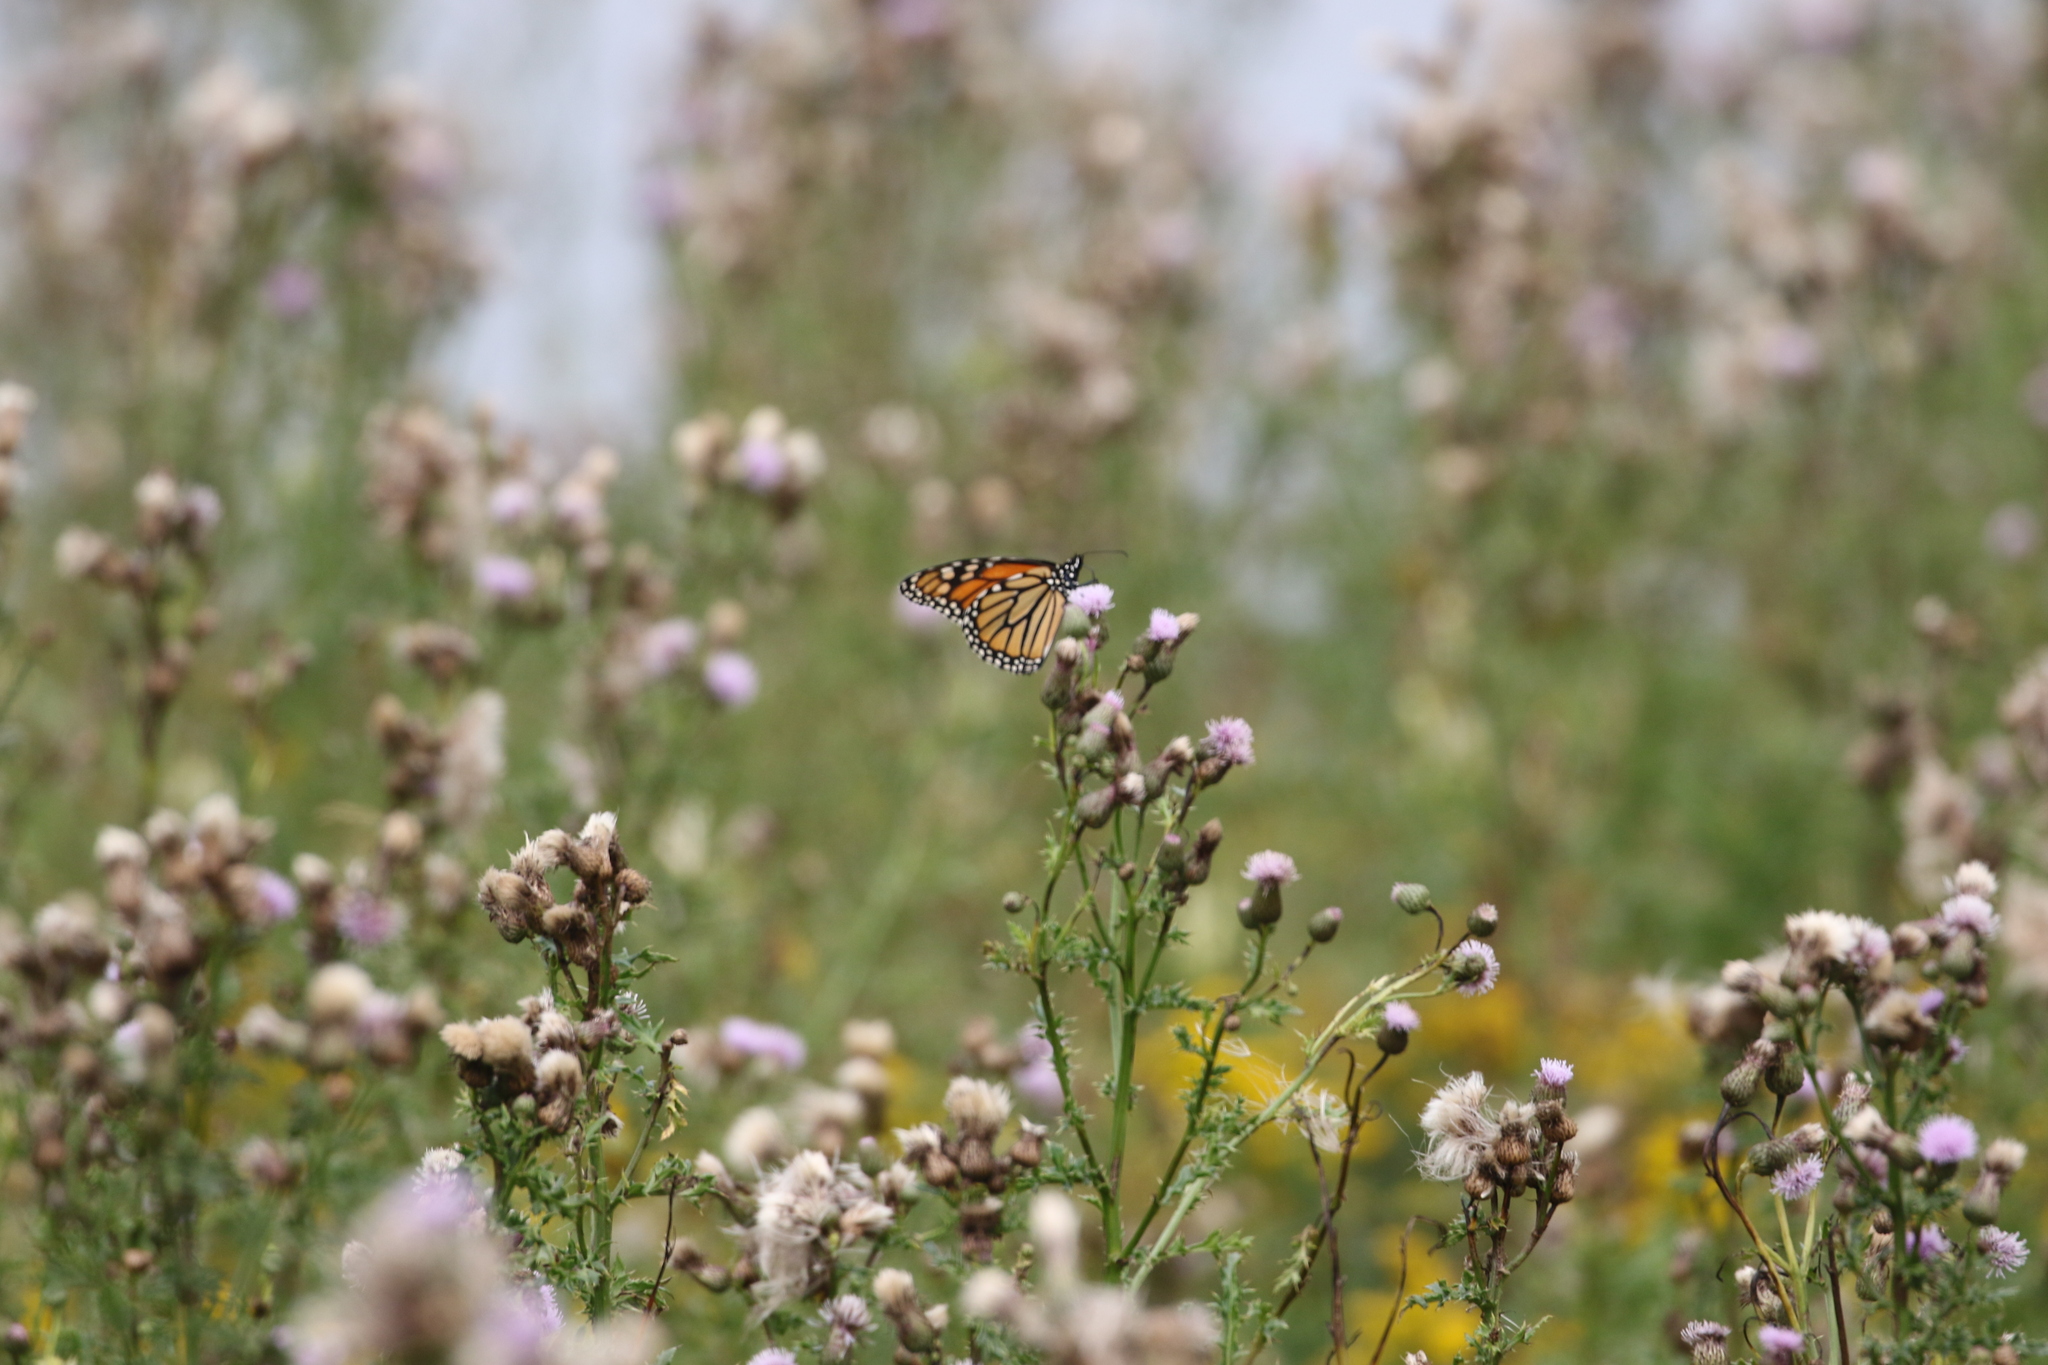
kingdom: Animalia
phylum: Arthropoda
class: Insecta
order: Lepidoptera
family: Nymphalidae
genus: Danaus
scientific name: Danaus plexippus
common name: Monarch
